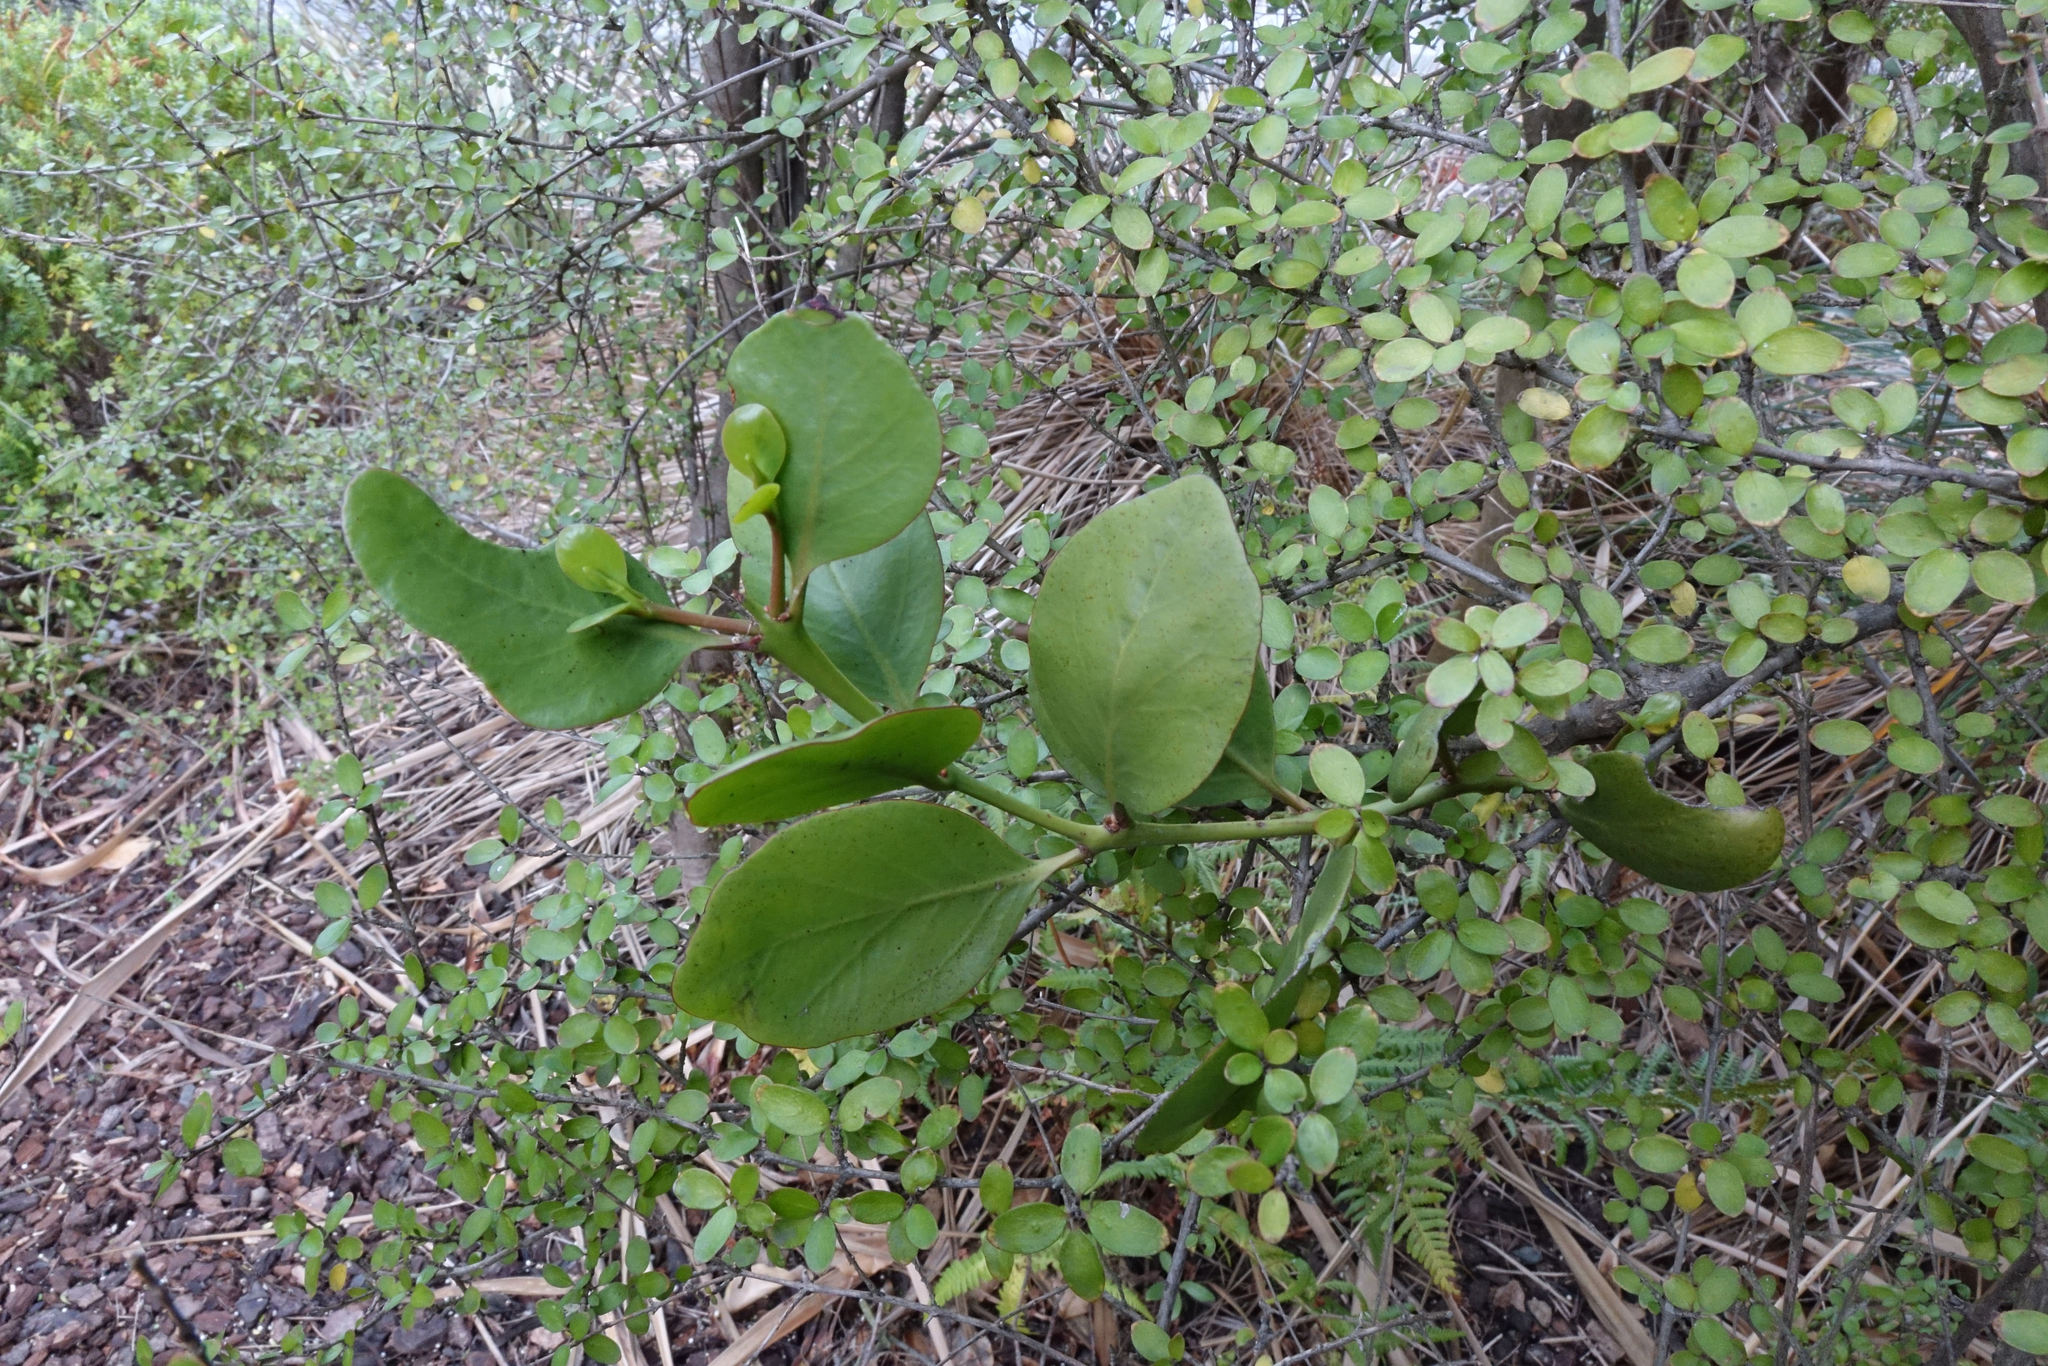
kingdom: Plantae
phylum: Tracheophyta
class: Magnoliopsida
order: Santalales
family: Loranthaceae
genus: Ileostylus
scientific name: Ileostylus micranthus
